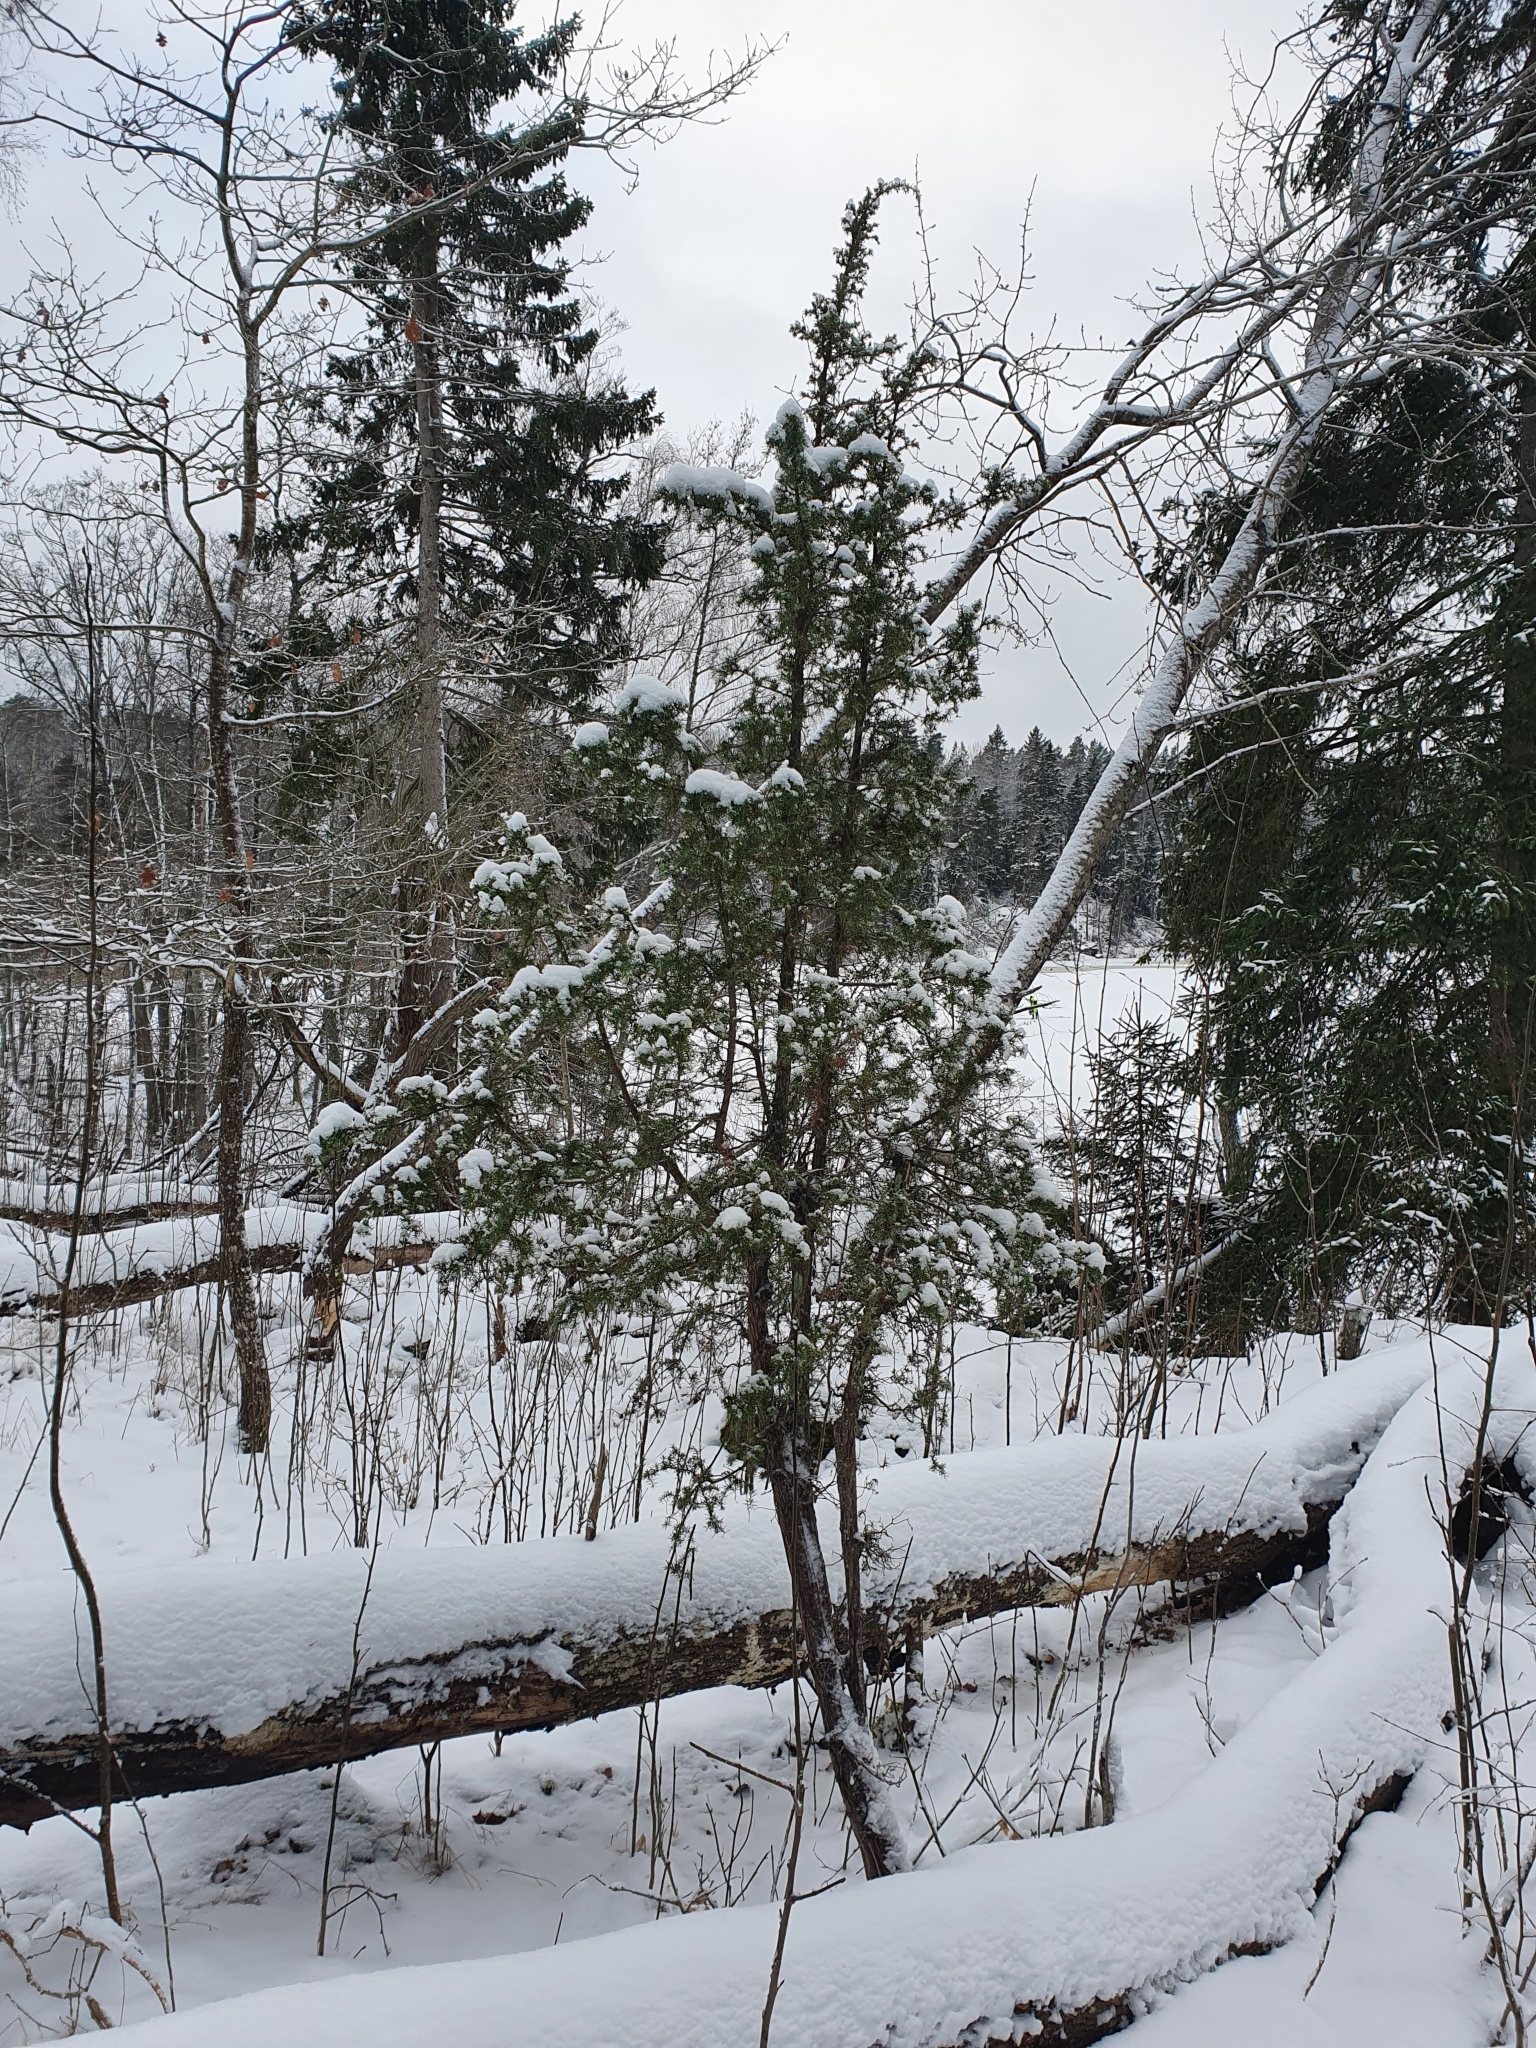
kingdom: Plantae
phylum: Tracheophyta
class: Pinopsida
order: Pinales
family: Cupressaceae
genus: Juniperus
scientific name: Juniperus communis
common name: Common juniper
